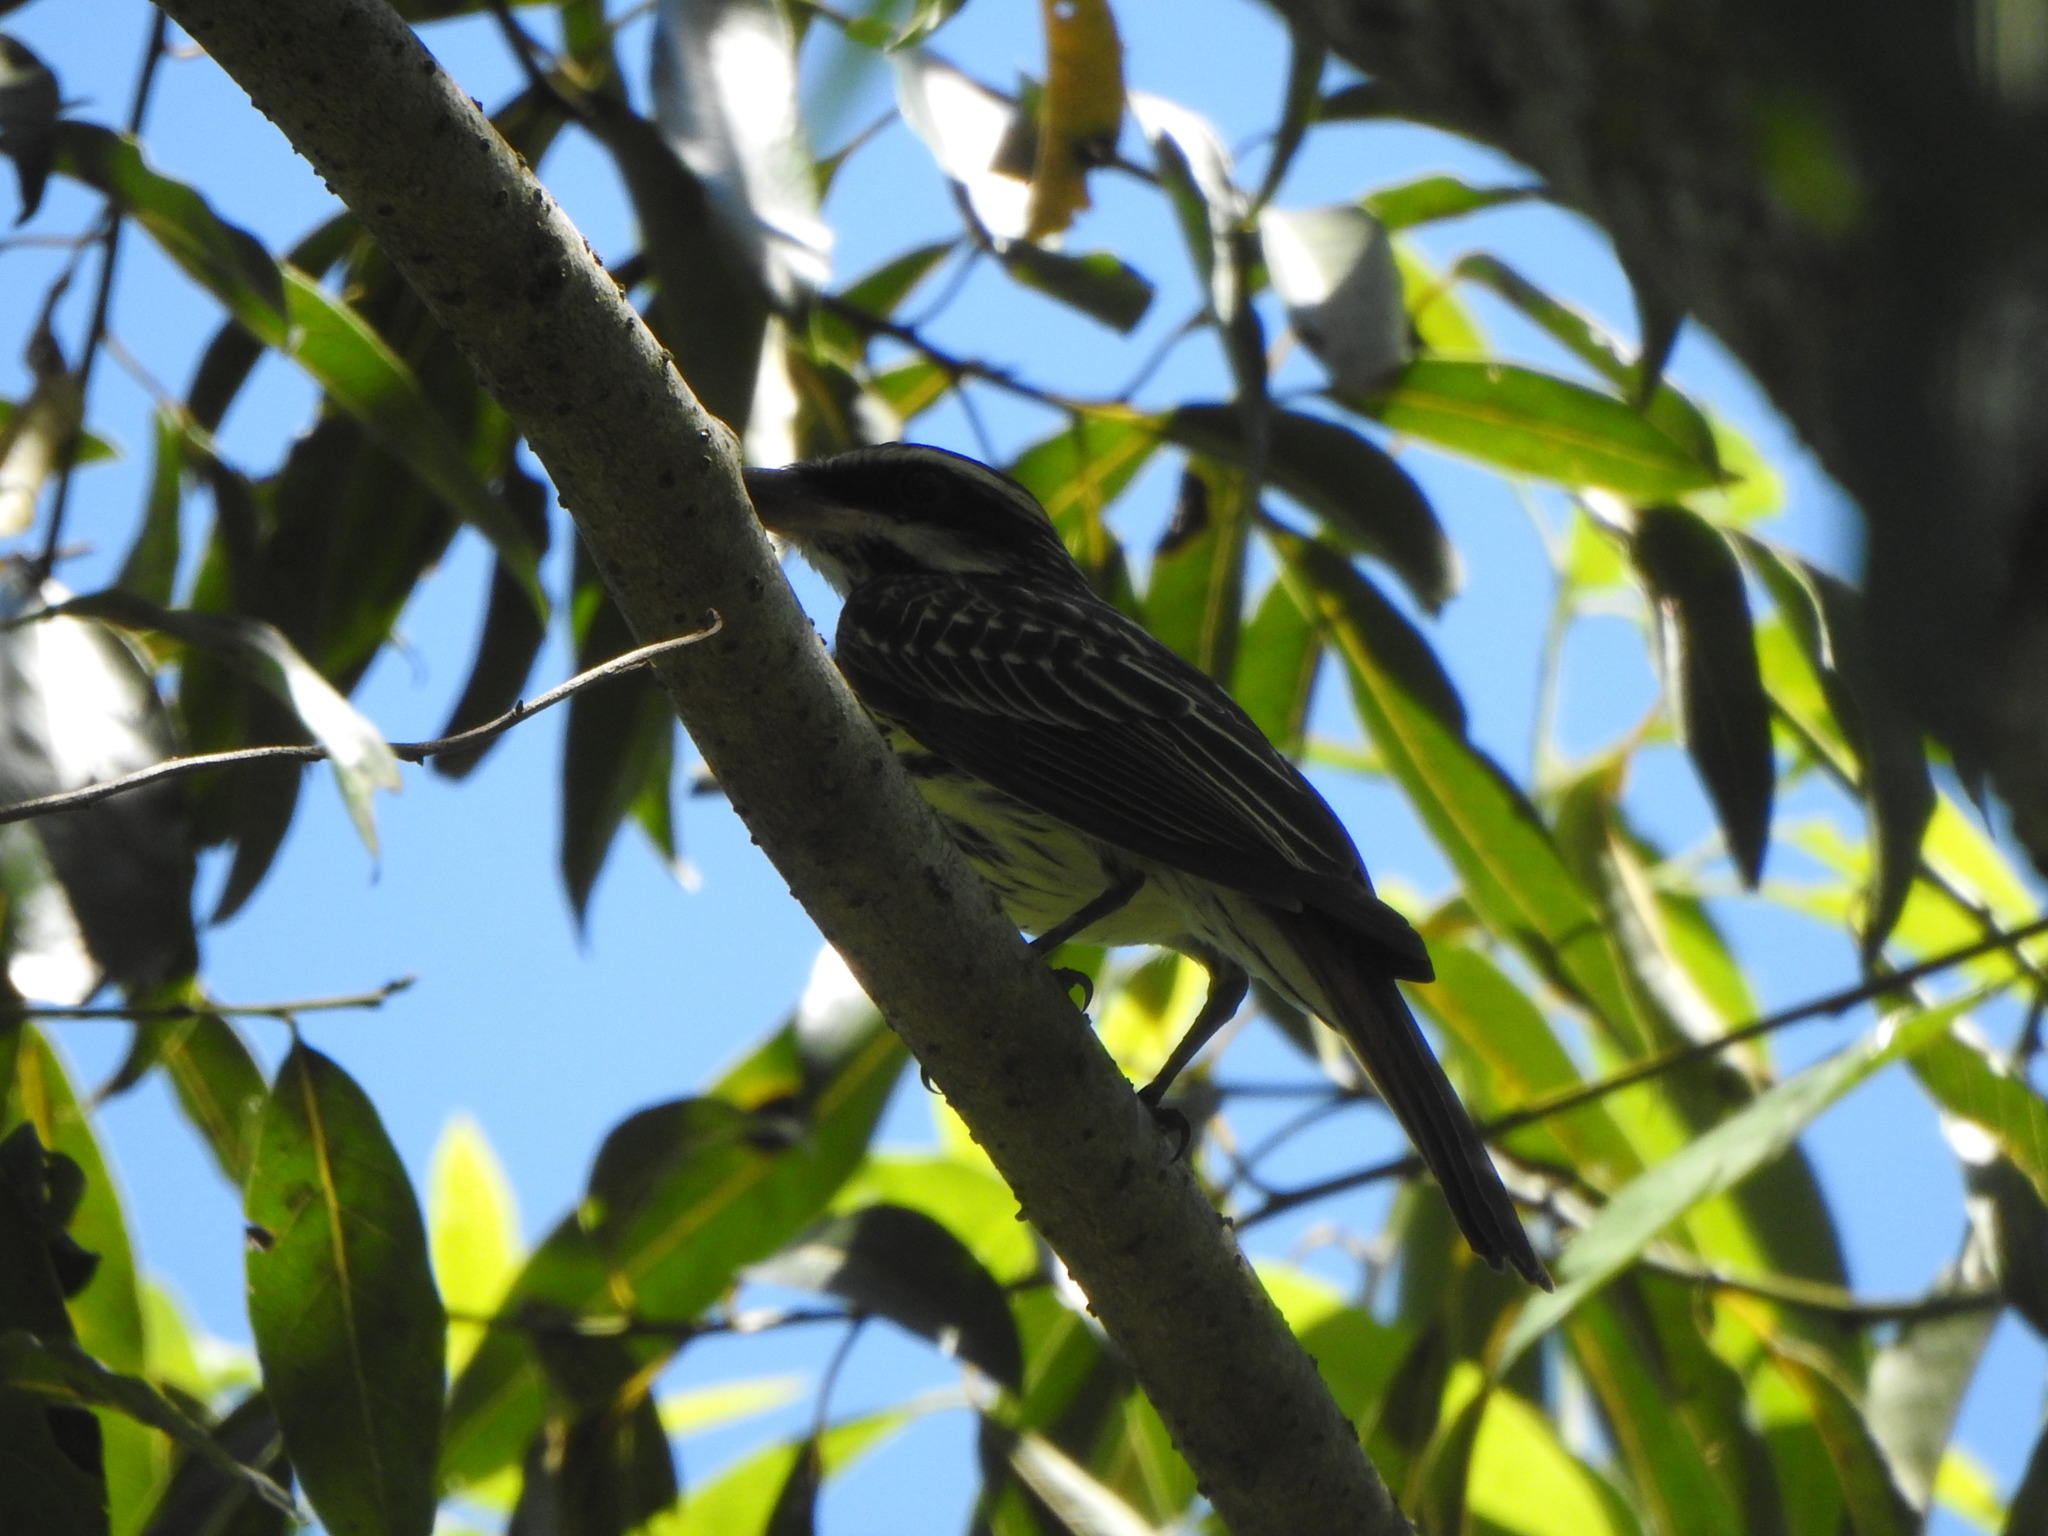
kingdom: Animalia
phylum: Chordata
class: Aves
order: Passeriformes
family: Tyrannidae
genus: Myiodynastes
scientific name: Myiodynastes maculatus
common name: Streaked flycatcher
